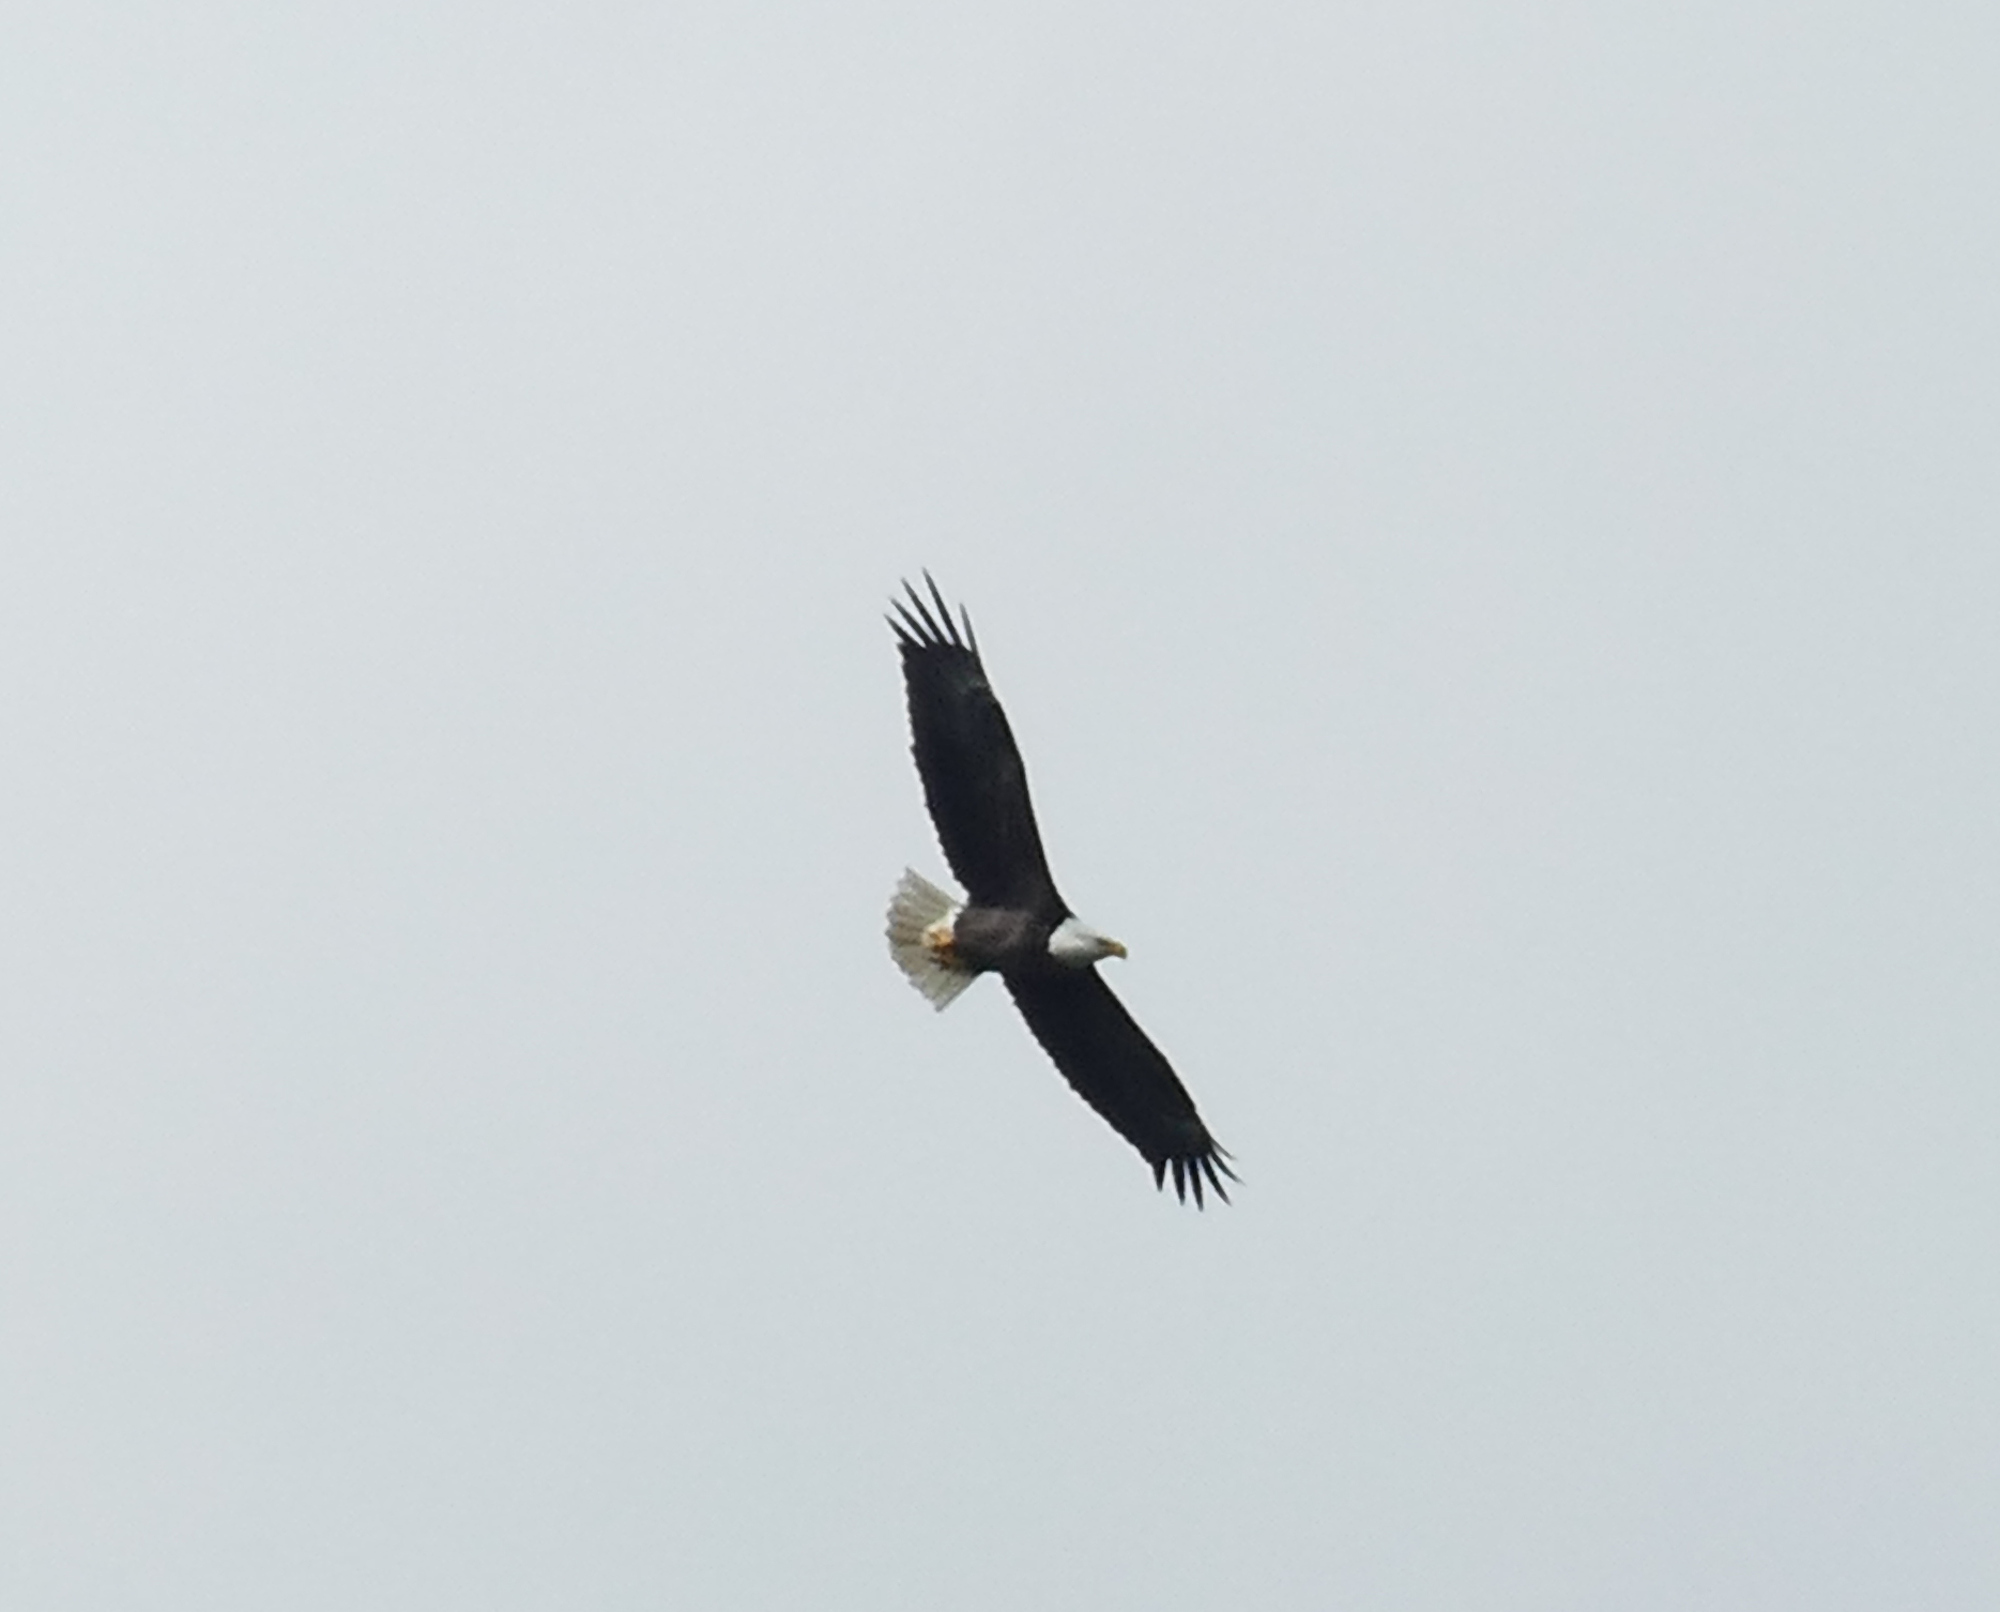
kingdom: Animalia
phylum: Chordata
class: Aves
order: Accipitriformes
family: Accipitridae
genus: Haliaeetus
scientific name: Haliaeetus leucocephalus
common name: Bald eagle
